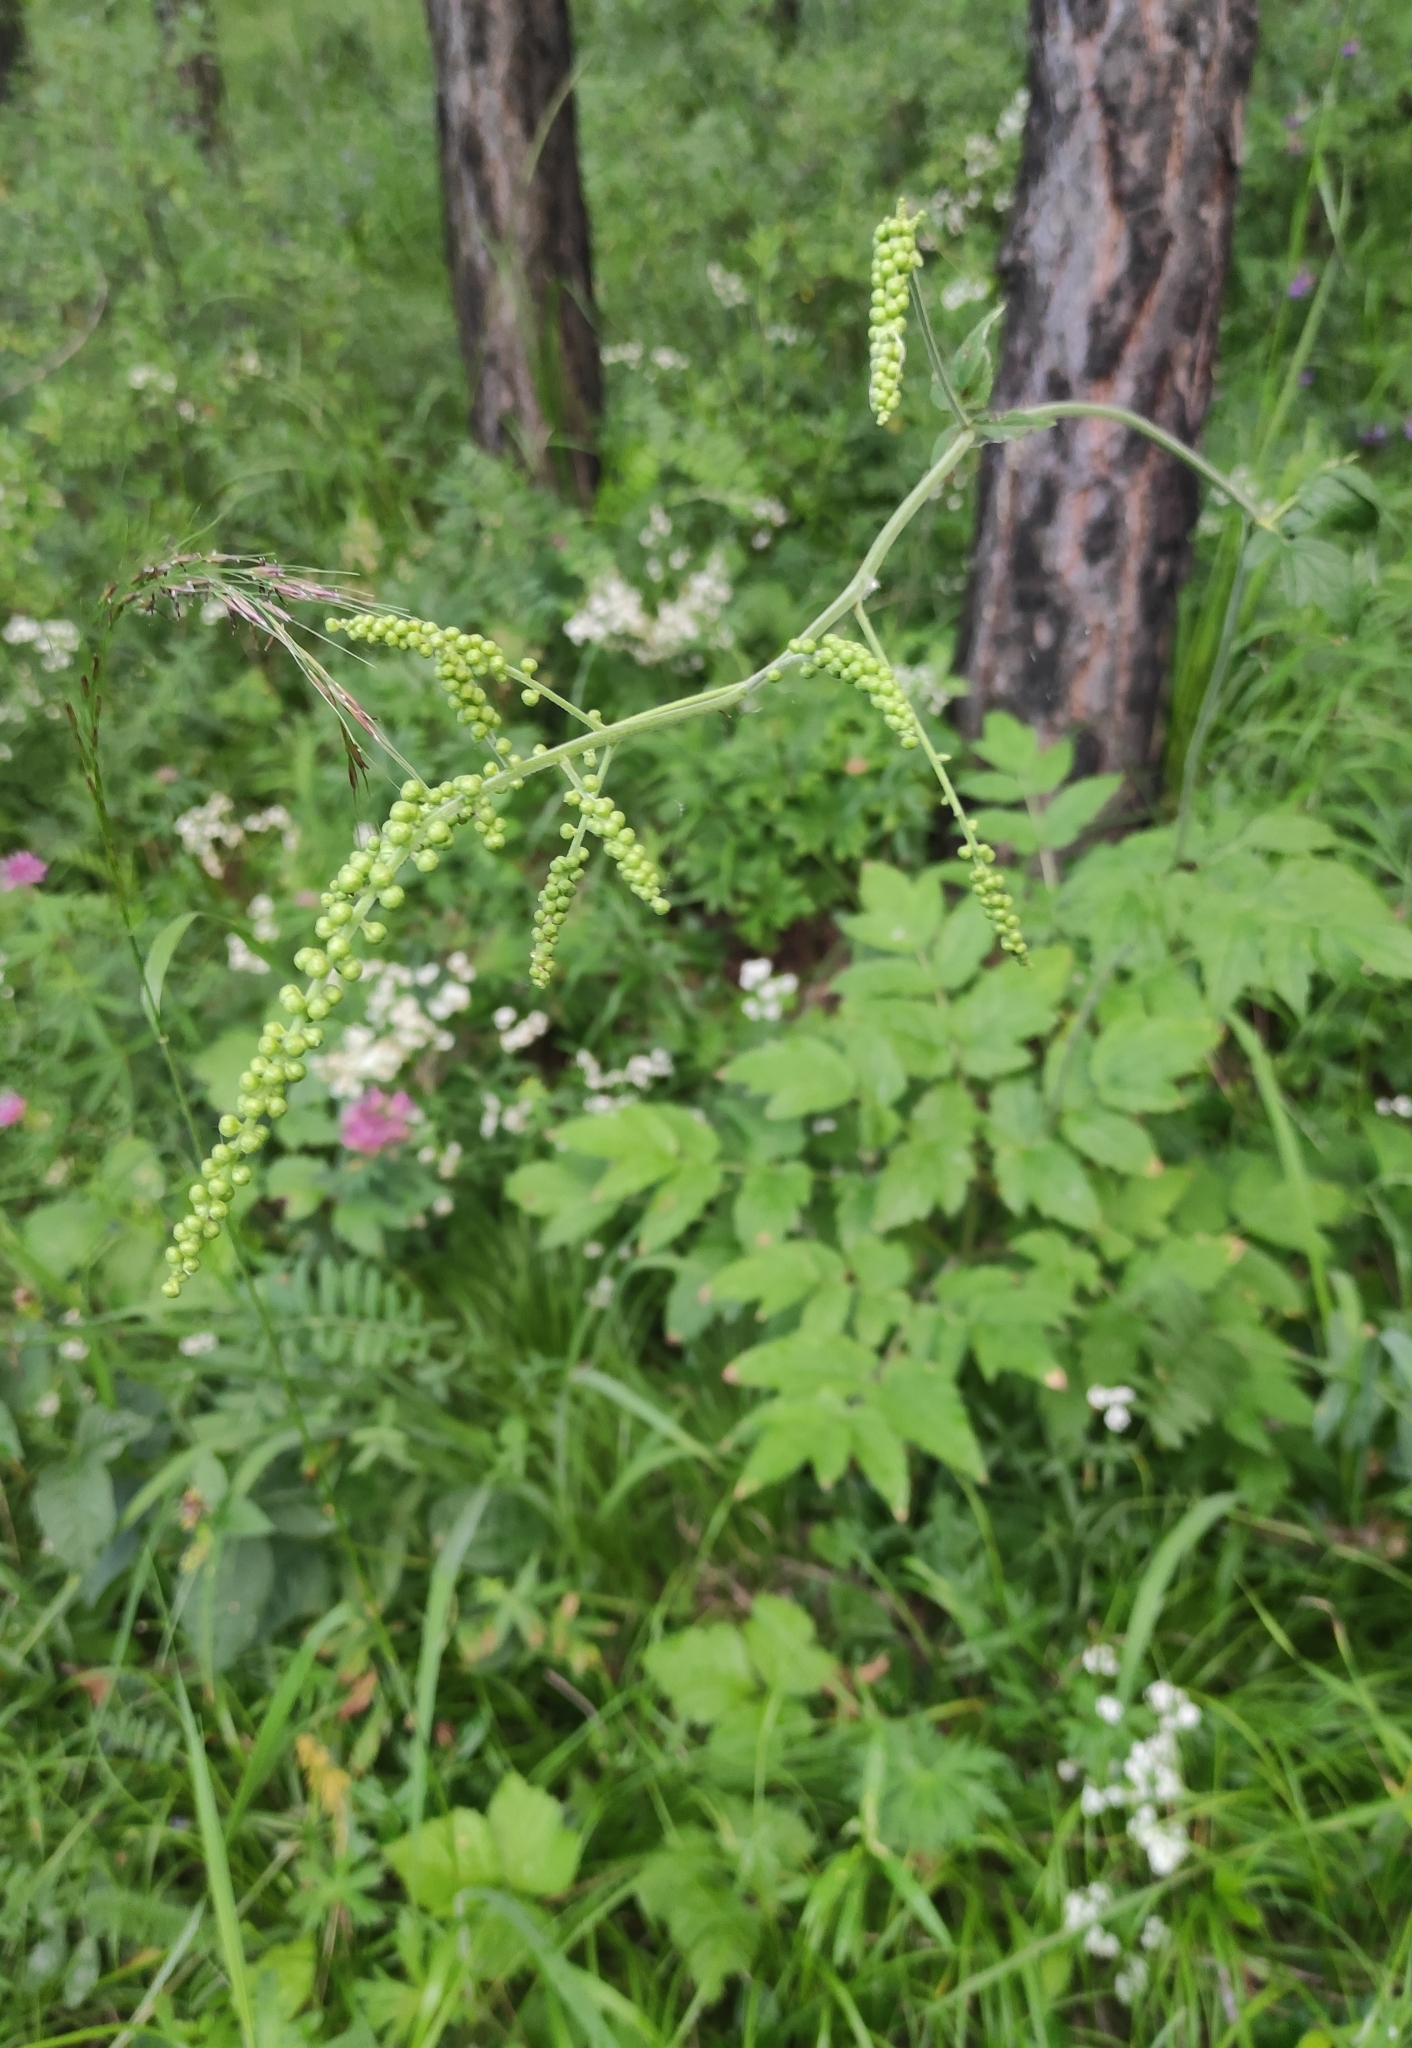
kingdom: Plantae
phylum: Tracheophyta
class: Magnoliopsida
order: Ranunculales
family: Ranunculaceae
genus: Actaea
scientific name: Actaea cimicifuga
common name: Chinese cimicifuga
